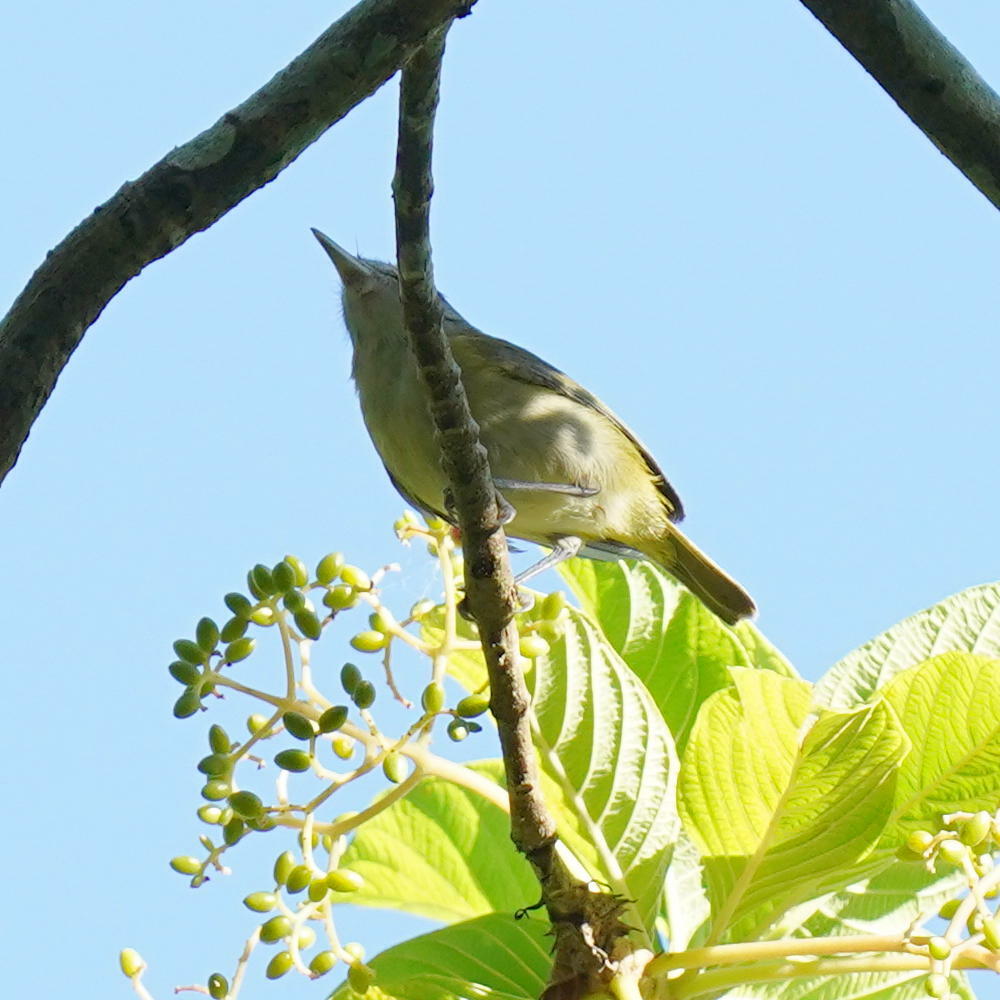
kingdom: Animalia
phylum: Chordata
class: Aves
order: Passeriformes
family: Vireonidae
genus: Hylophilus
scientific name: Hylophilus decurtatus
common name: Lesser greenlet
